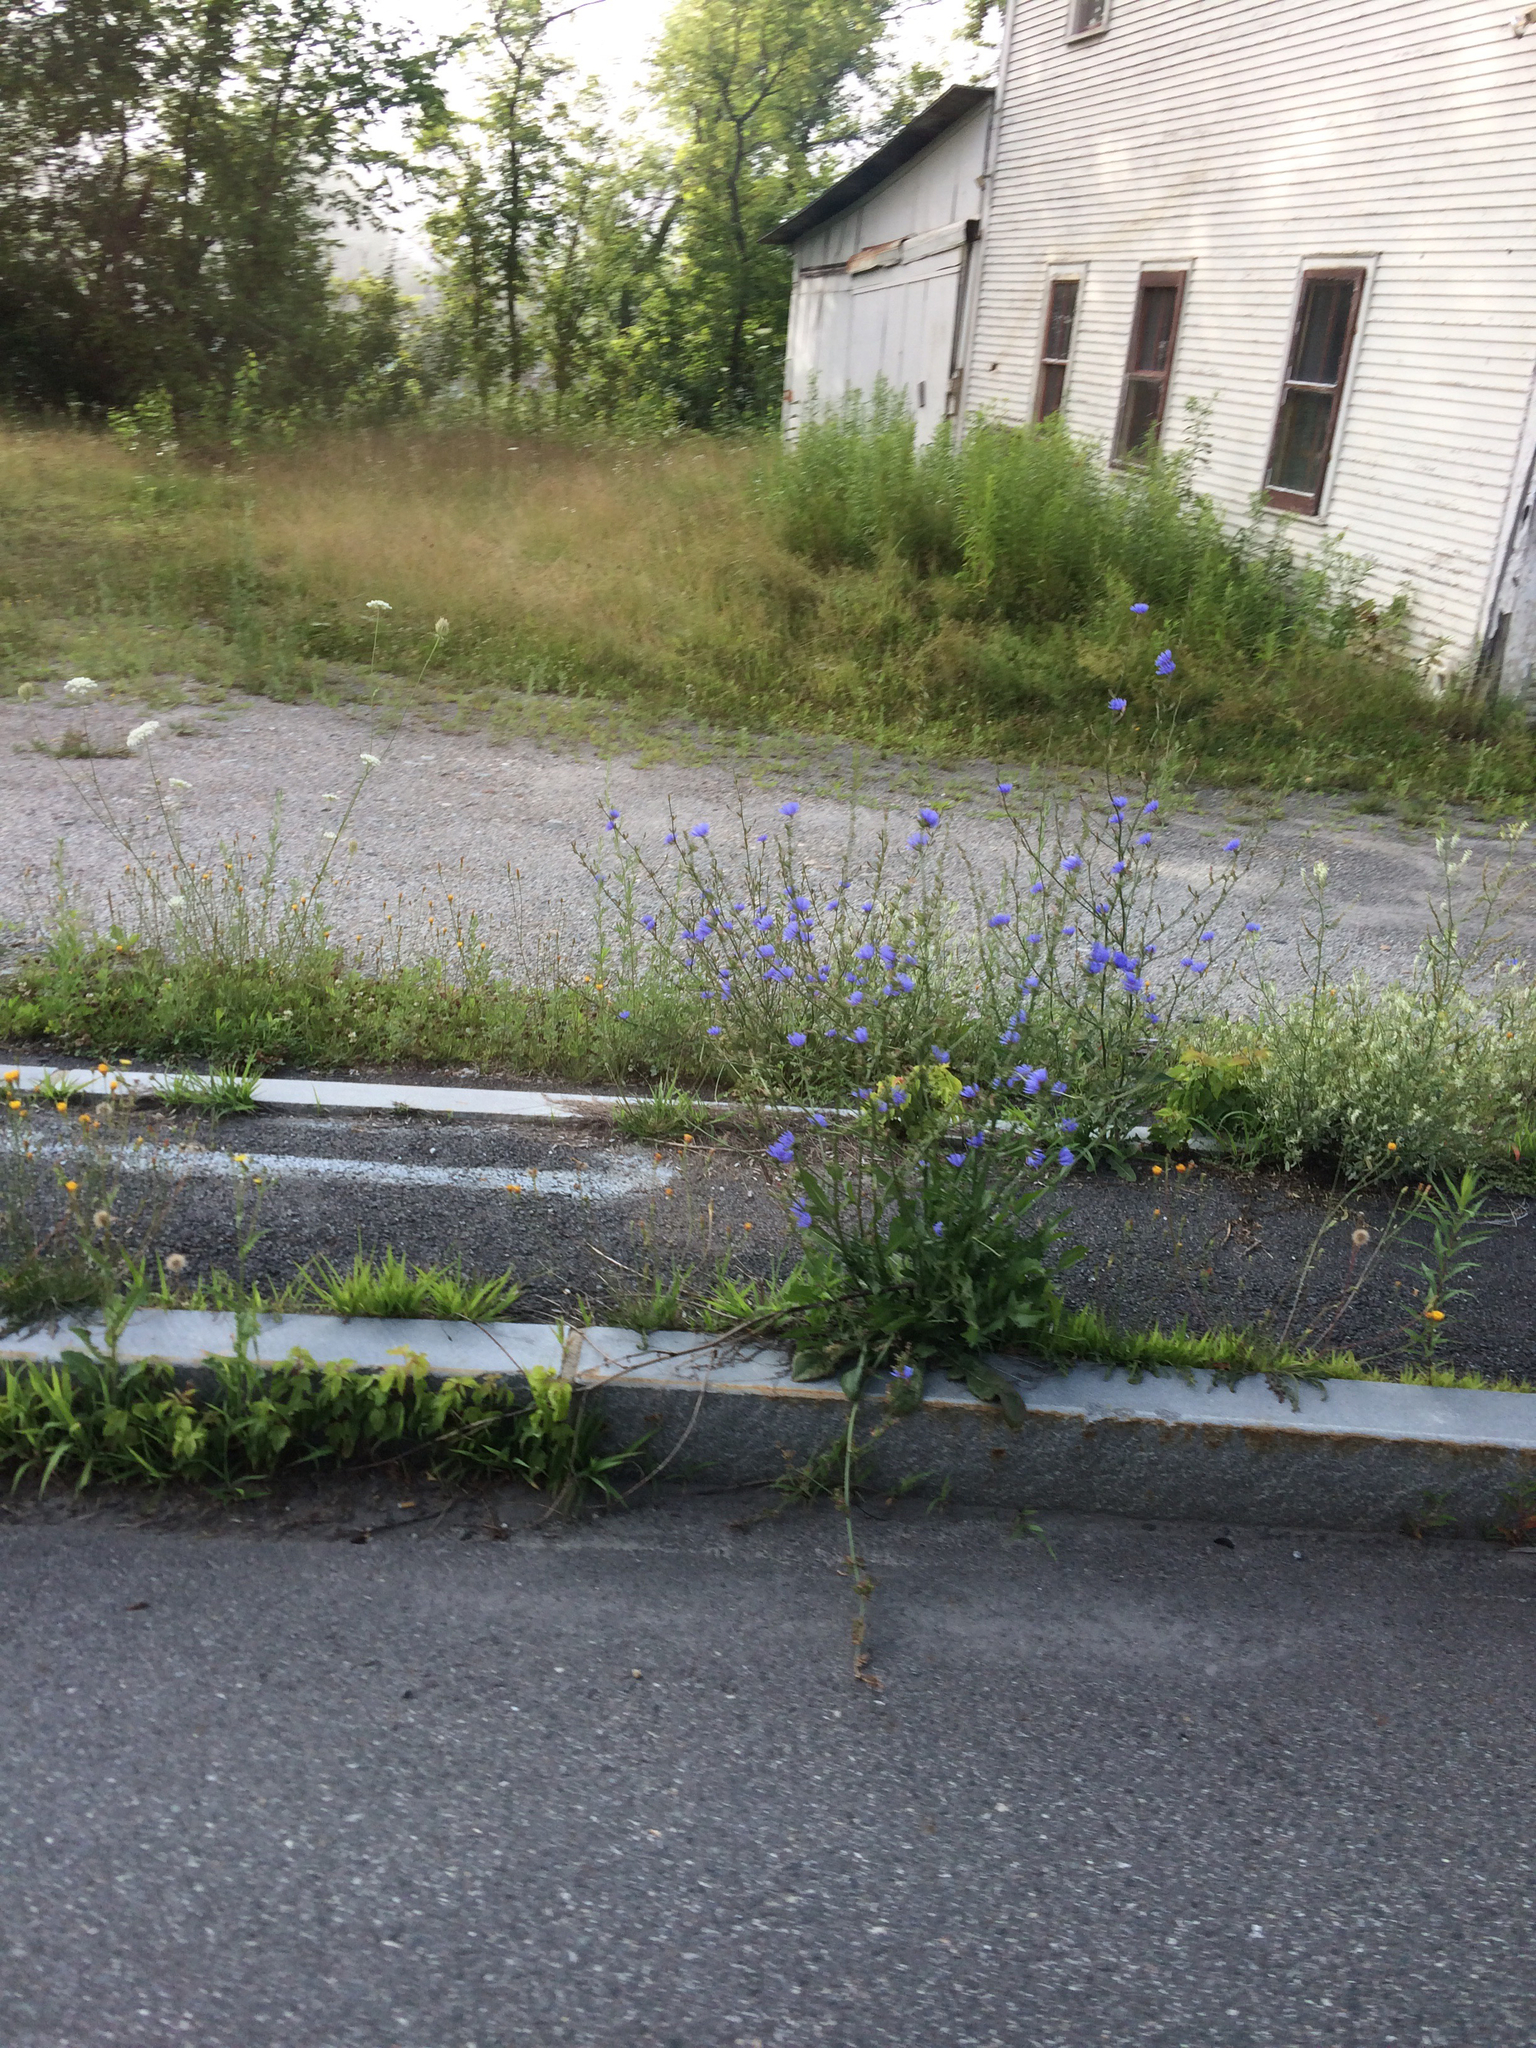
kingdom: Plantae
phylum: Tracheophyta
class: Magnoliopsida
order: Asterales
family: Asteraceae
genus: Cichorium
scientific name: Cichorium intybus
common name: Chicory
